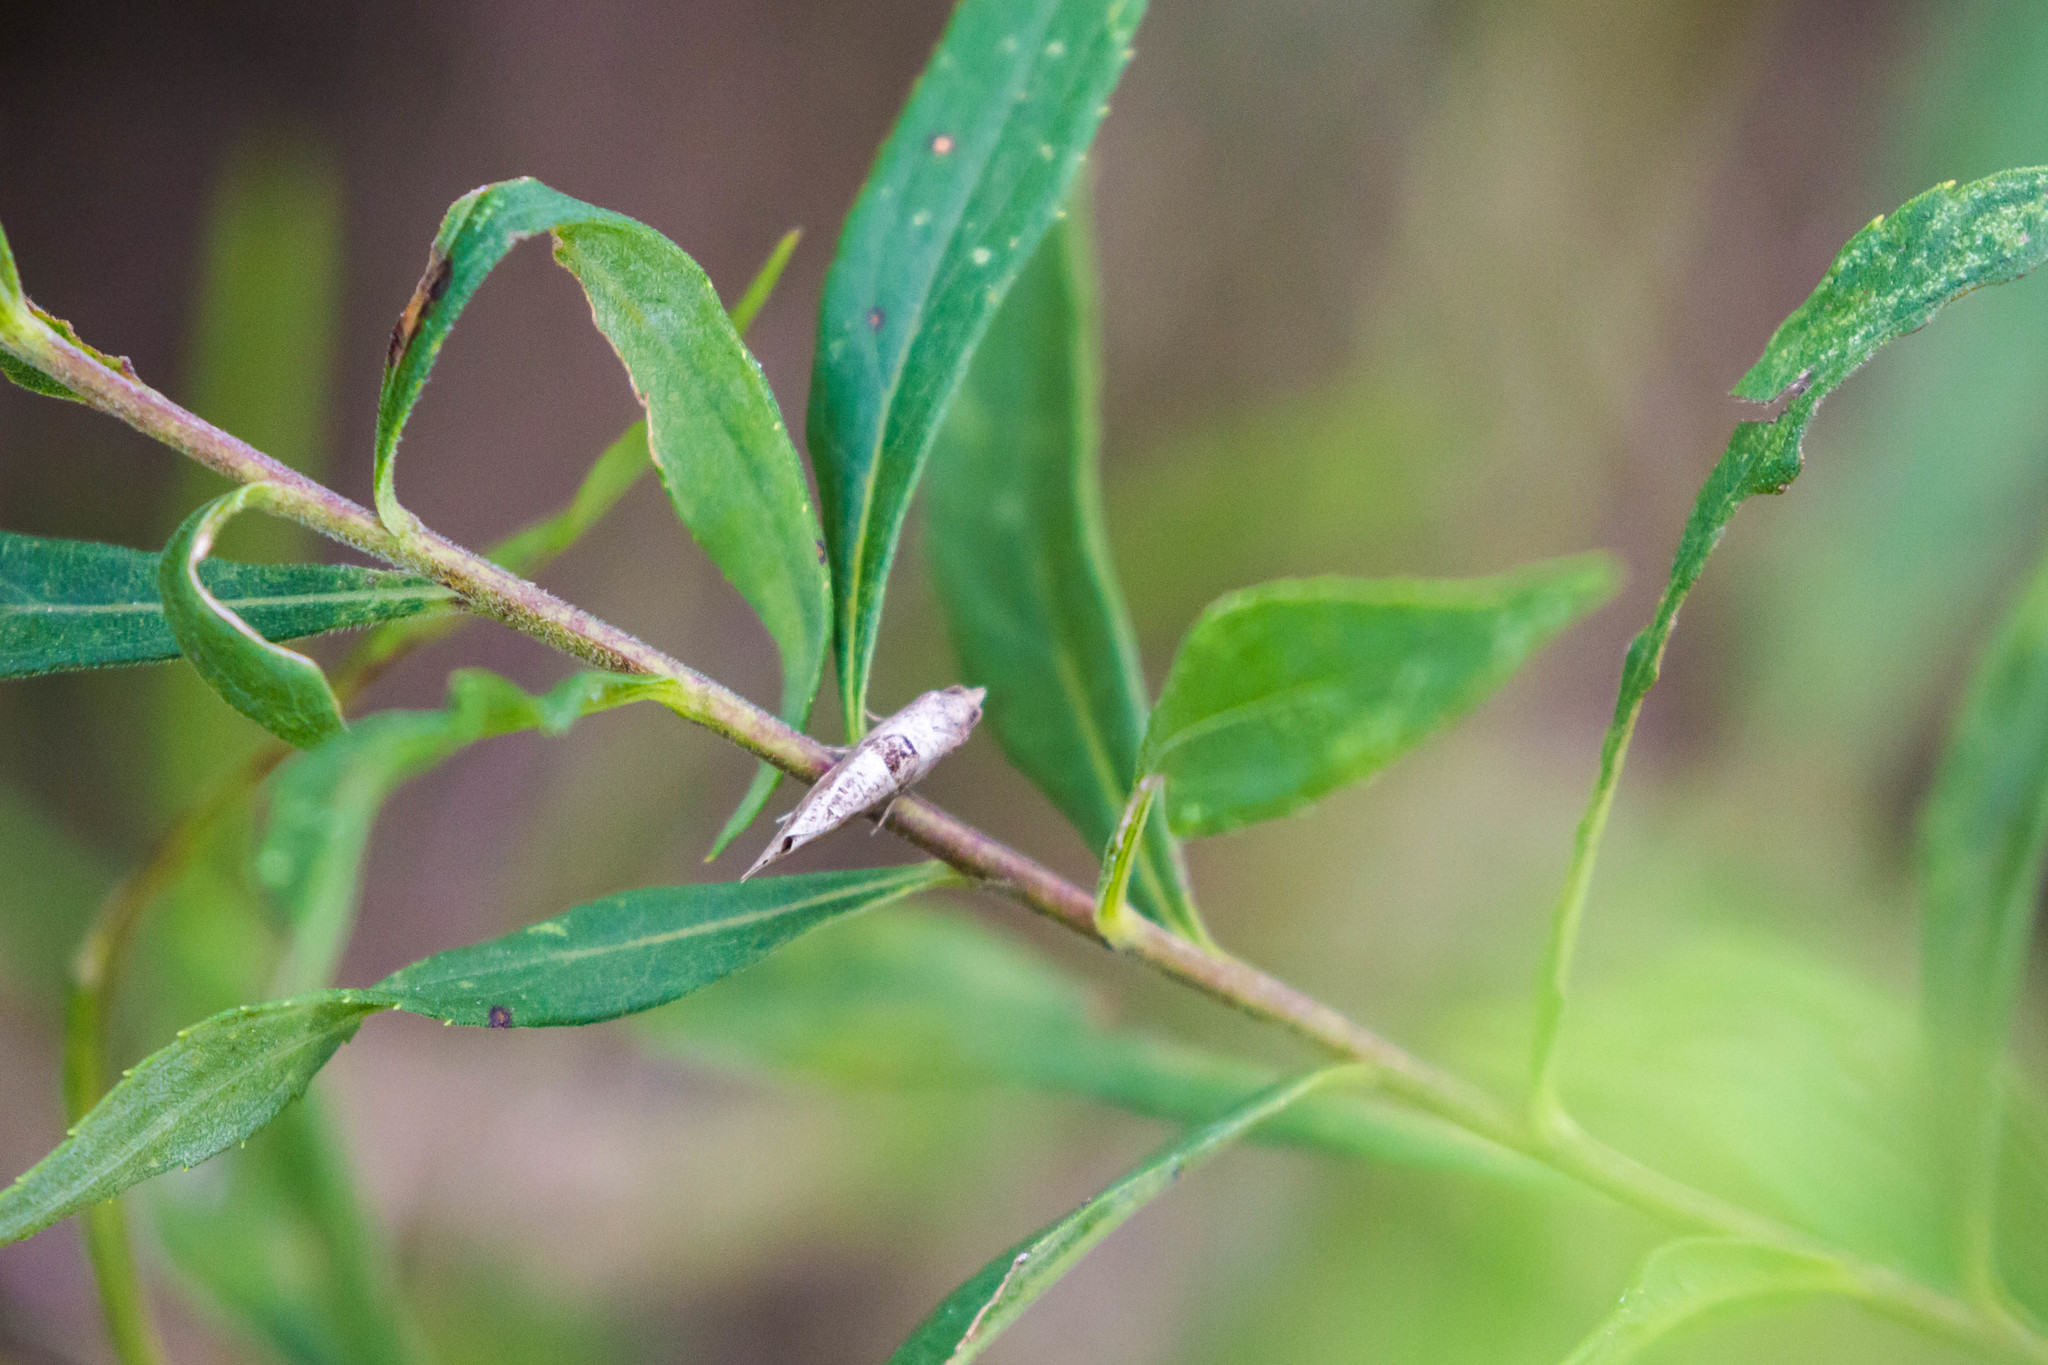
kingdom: Animalia
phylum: Arthropoda
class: Insecta
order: Lepidoptera
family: Tortricidae
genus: Pelochrista
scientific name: Pelochrista dorsisignatana
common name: Triangle-backed pelochrista moth
